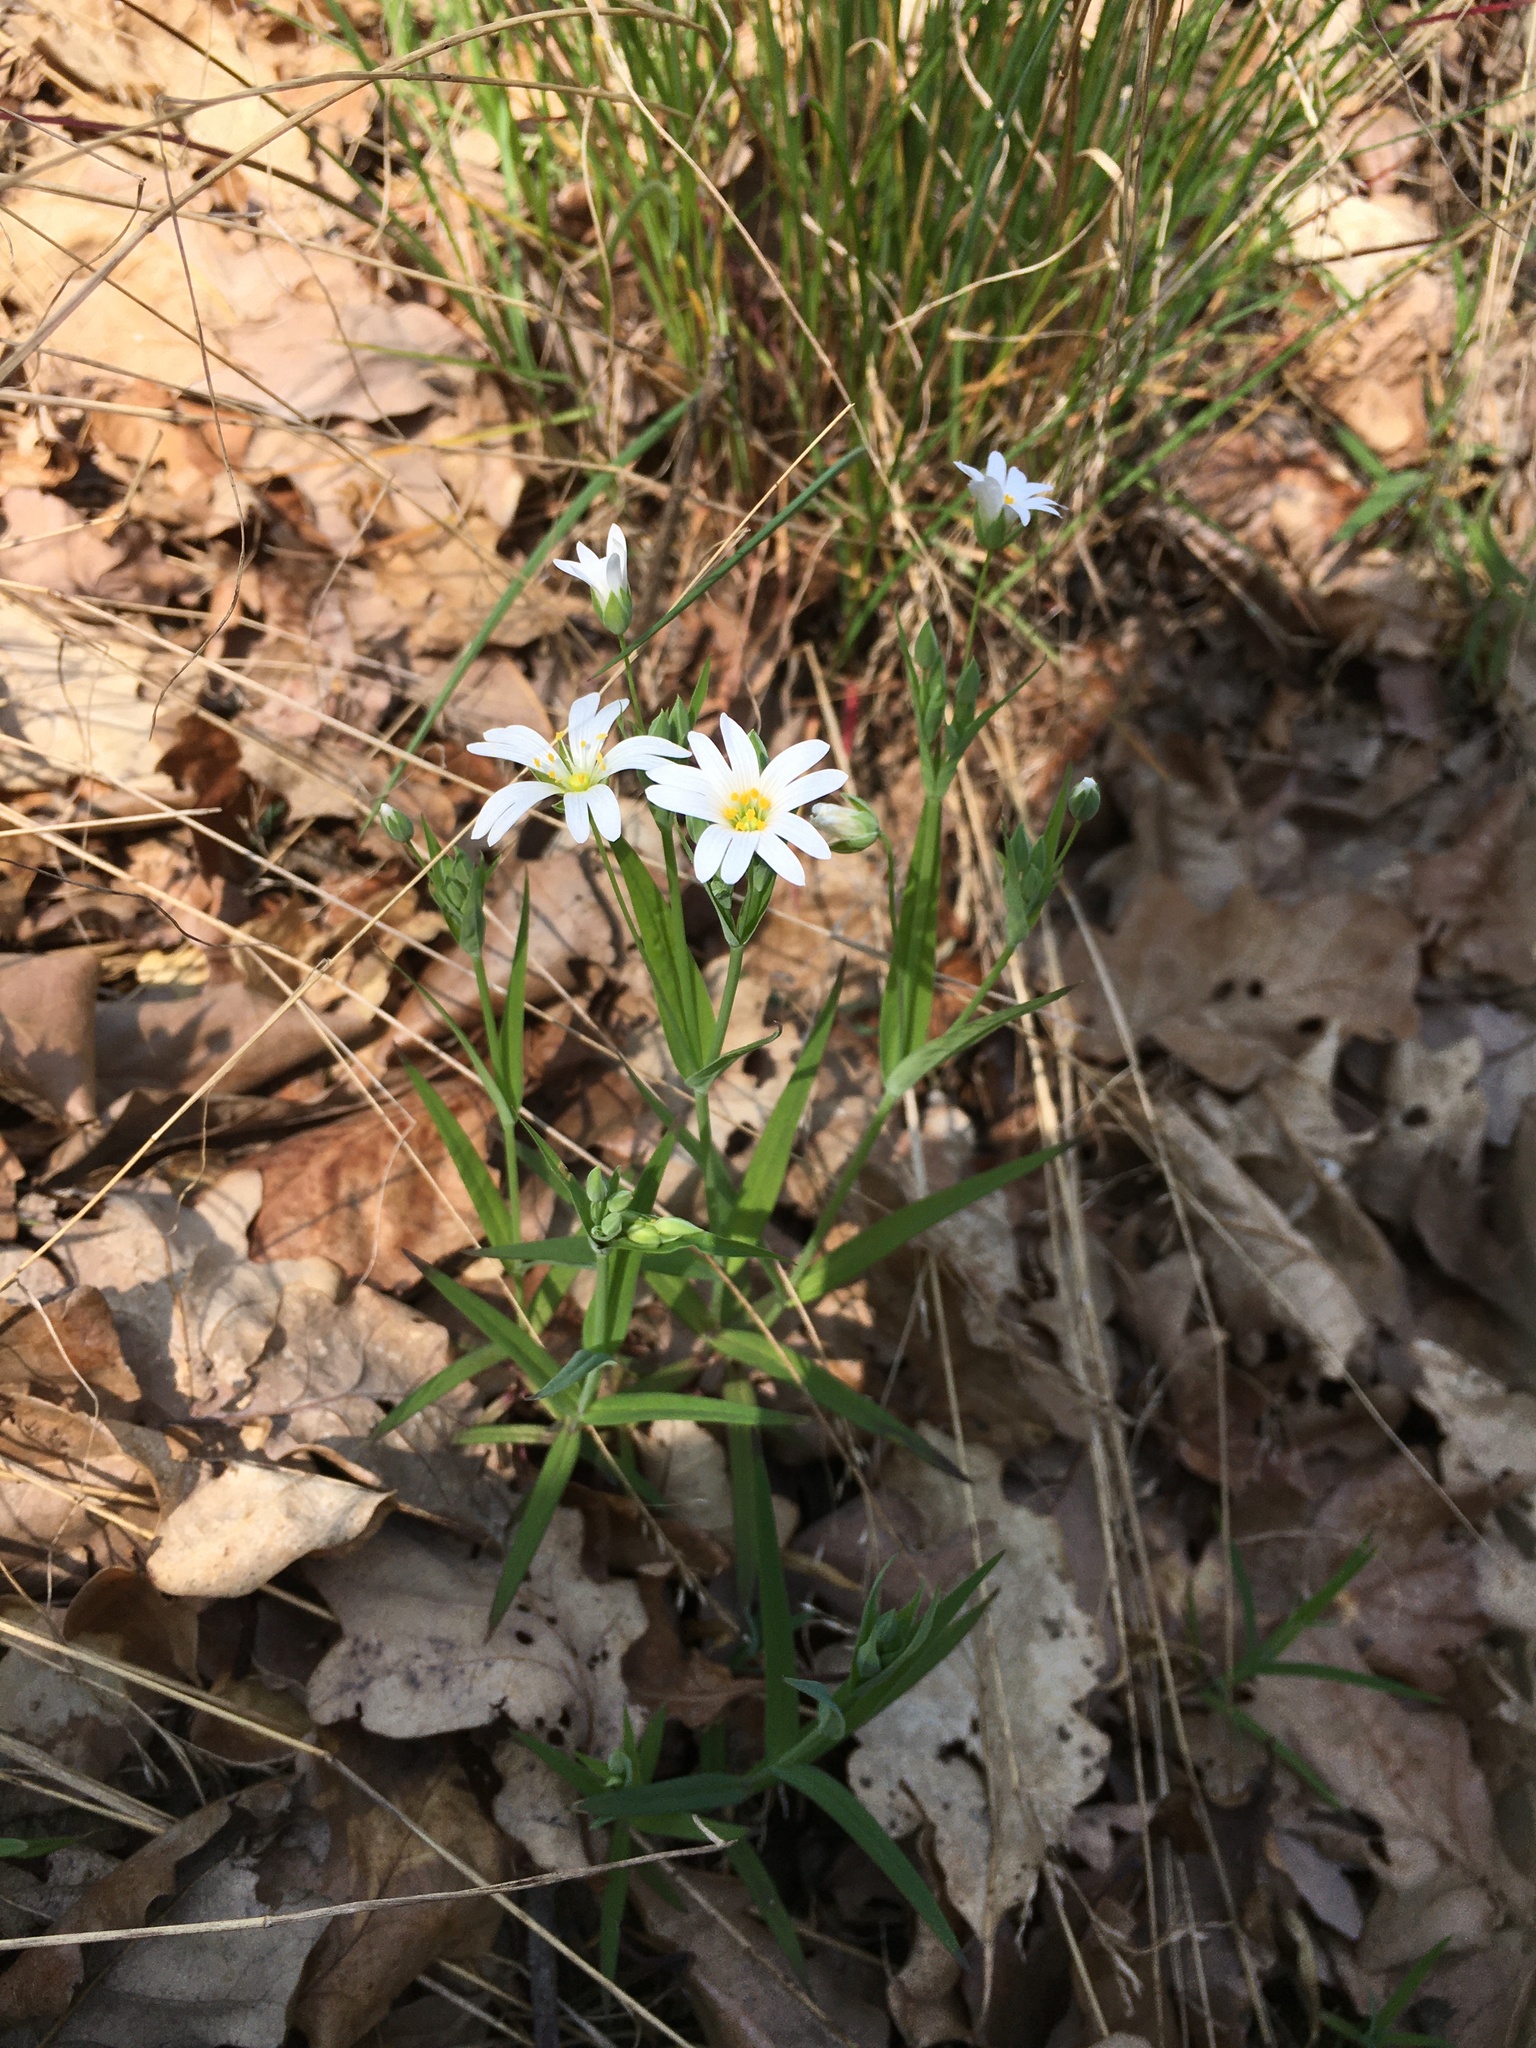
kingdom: Plantae
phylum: Tracheophyta
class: Magnoliopsida
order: Caryophyllales
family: Caryophyllaceae
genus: Rabelera
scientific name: Rabelera holostea
